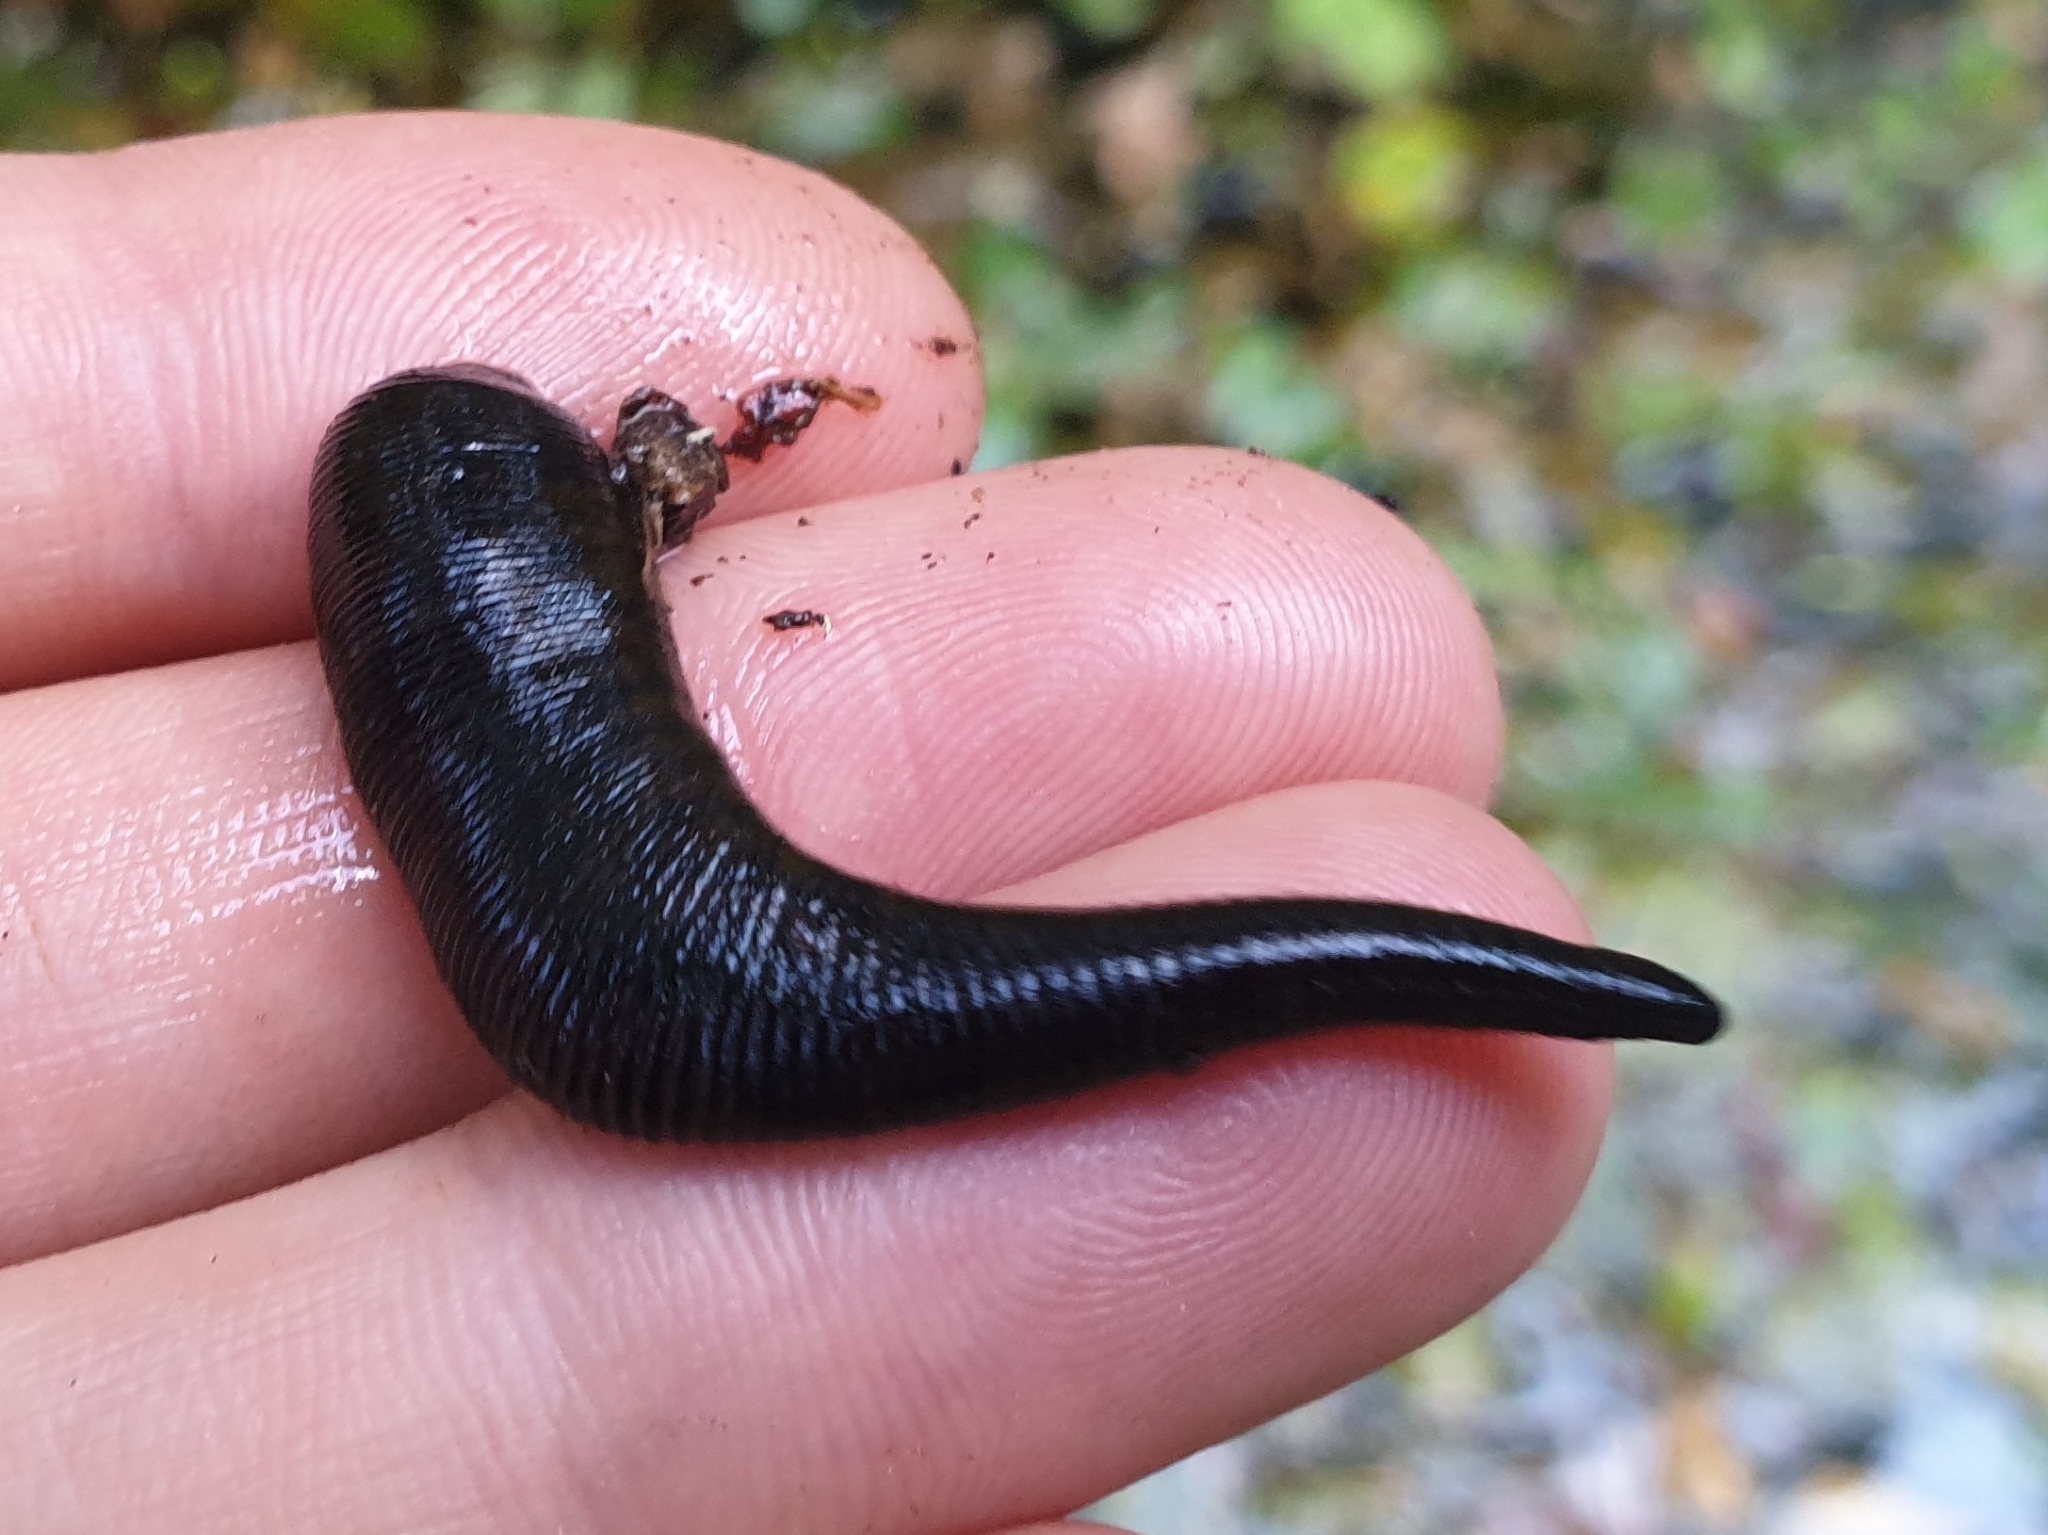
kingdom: Animalia
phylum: Annelida
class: Clitellata
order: Arhynchobdellida
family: Haemopidae
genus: Haemopis
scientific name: Haemopis sanguisuga
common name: Horse leech
